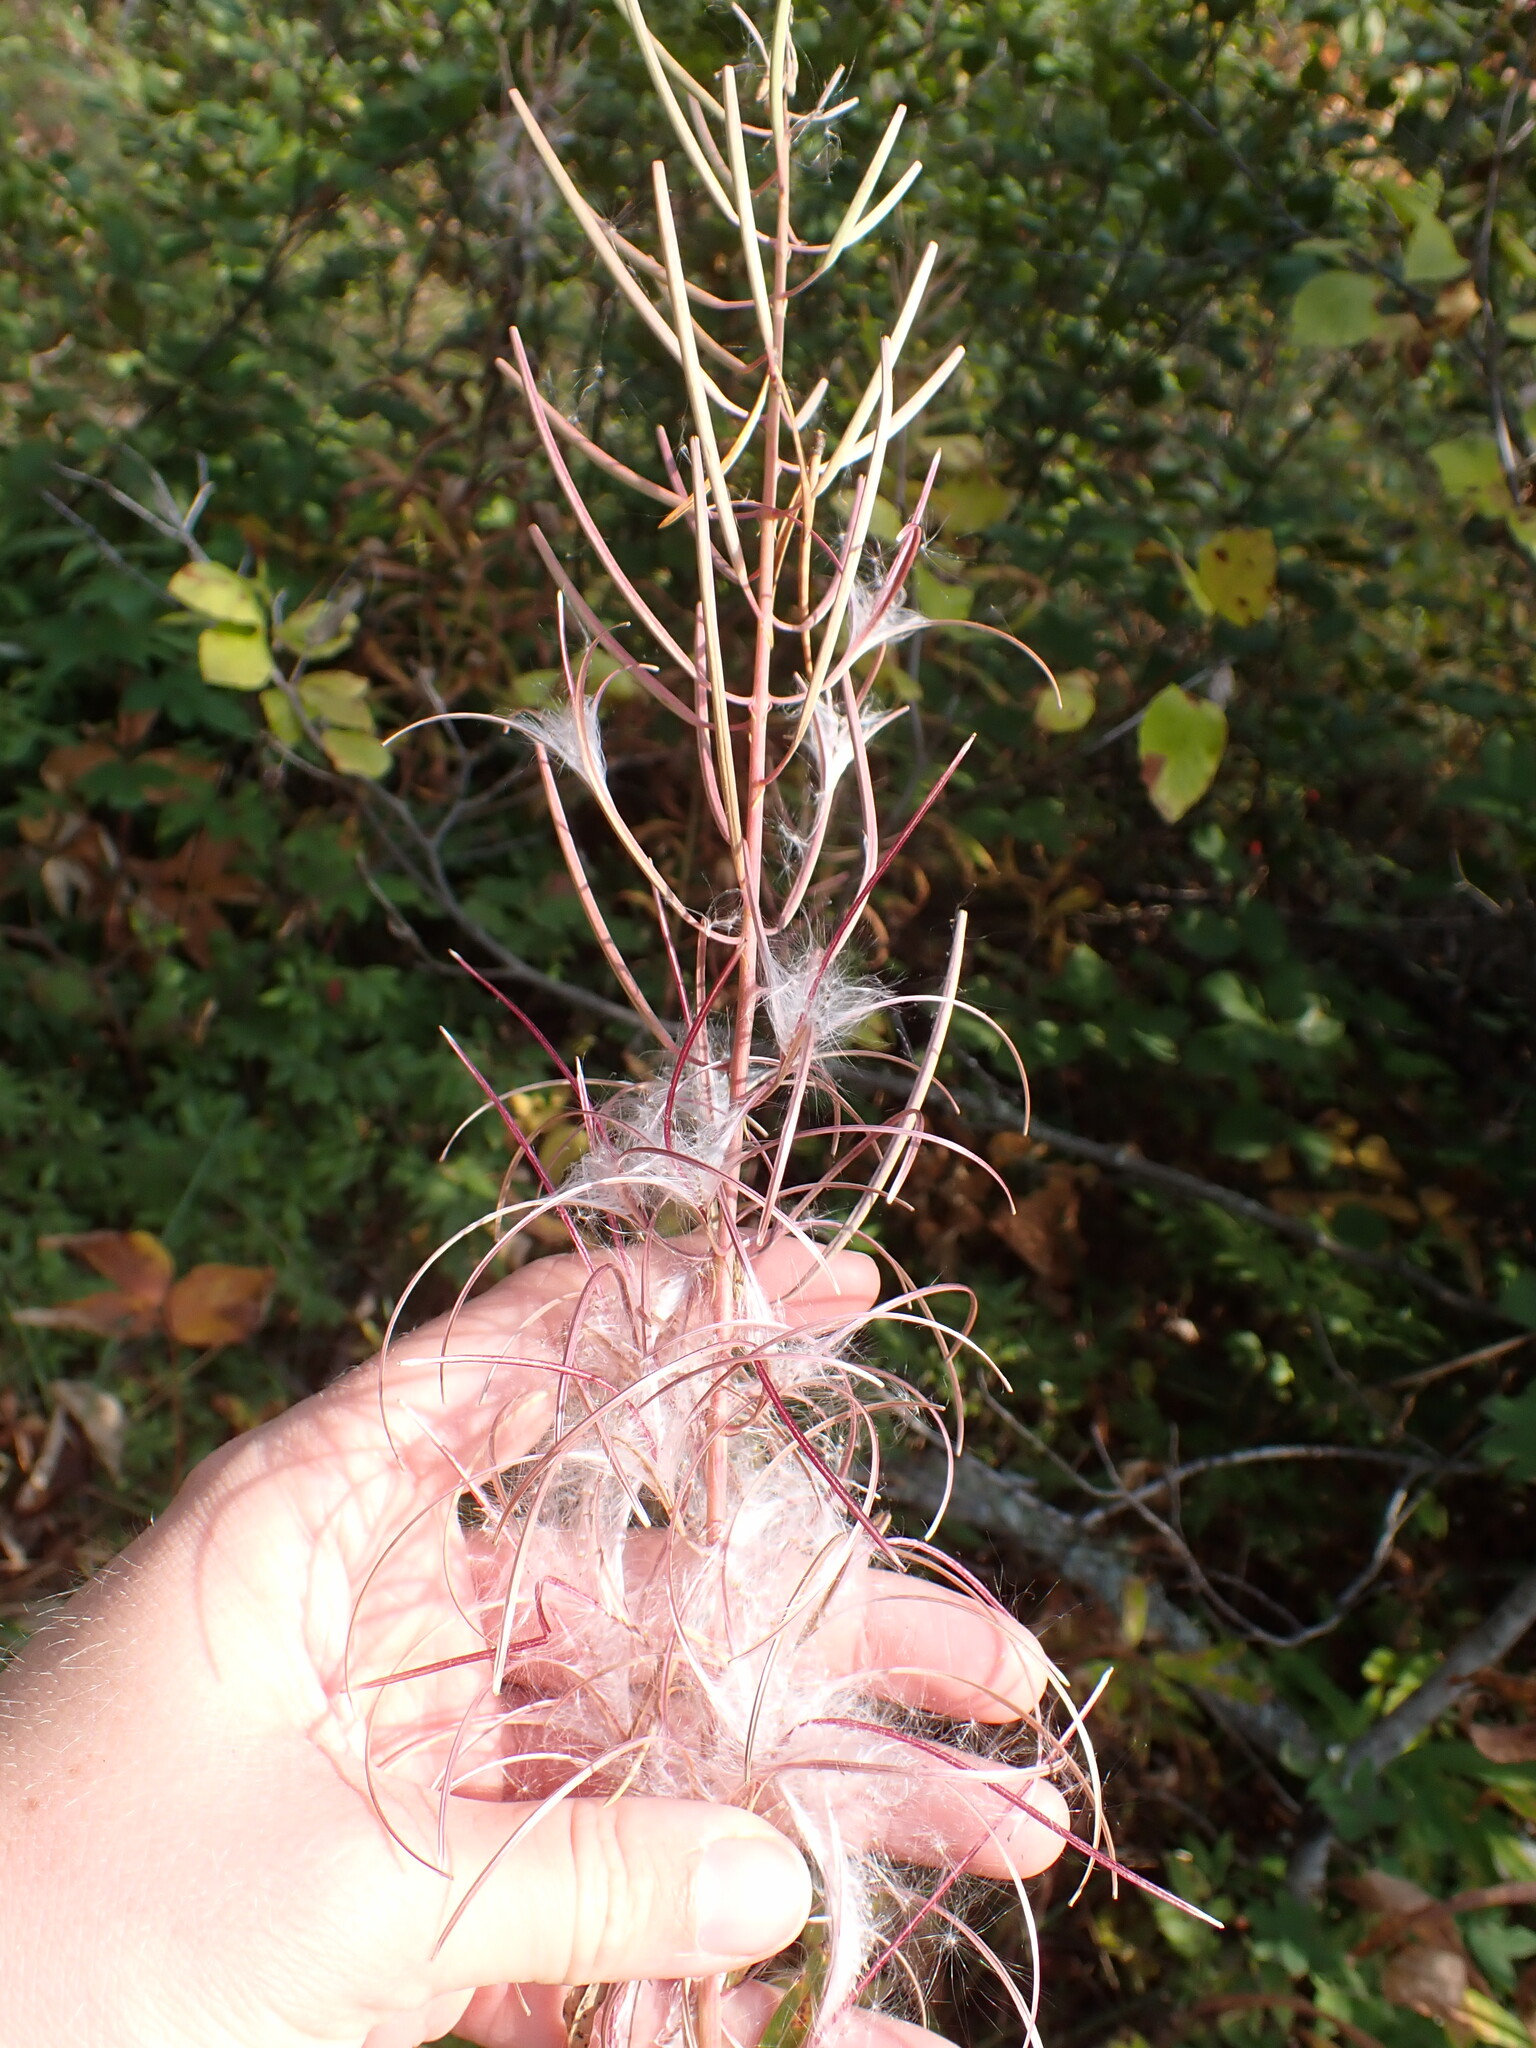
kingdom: Plantae
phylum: Tracheophyta
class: Magnoliopsida
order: Myrtales
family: Onagraceae
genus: Chamaenerion
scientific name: Chamaenerion angustifolium
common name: Fireweed
